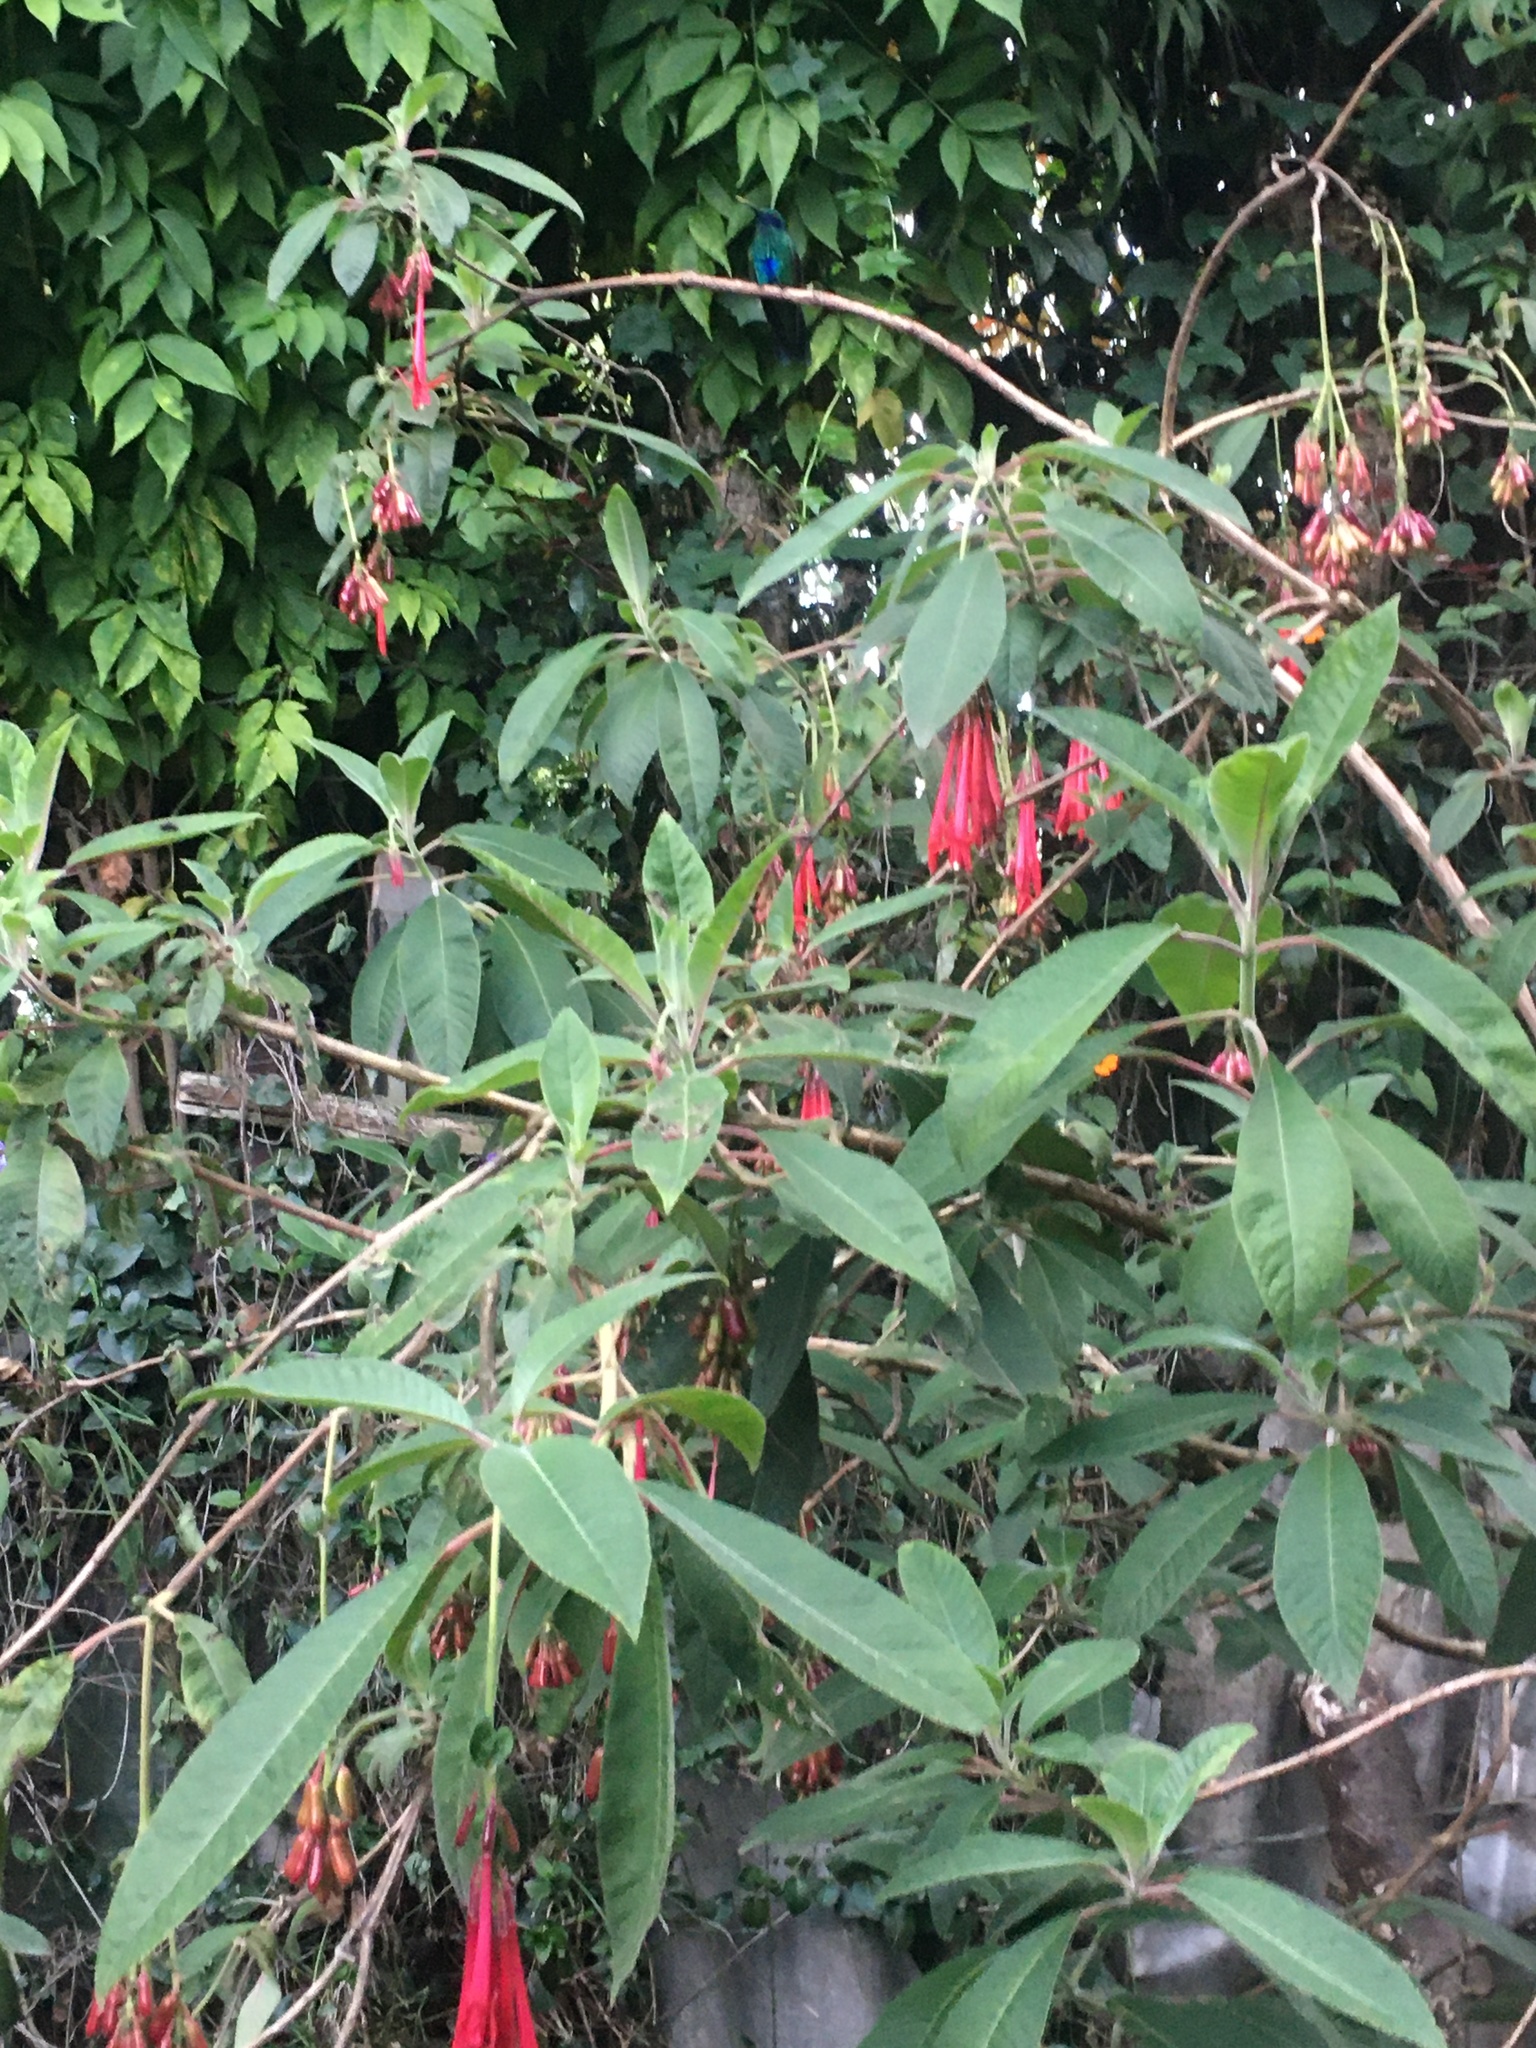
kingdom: Animalia
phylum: Chordata
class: Aves
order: Apodiformes
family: Trochilidae
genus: Colibri
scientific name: Colibri coruscans
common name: Sparkling violetear
